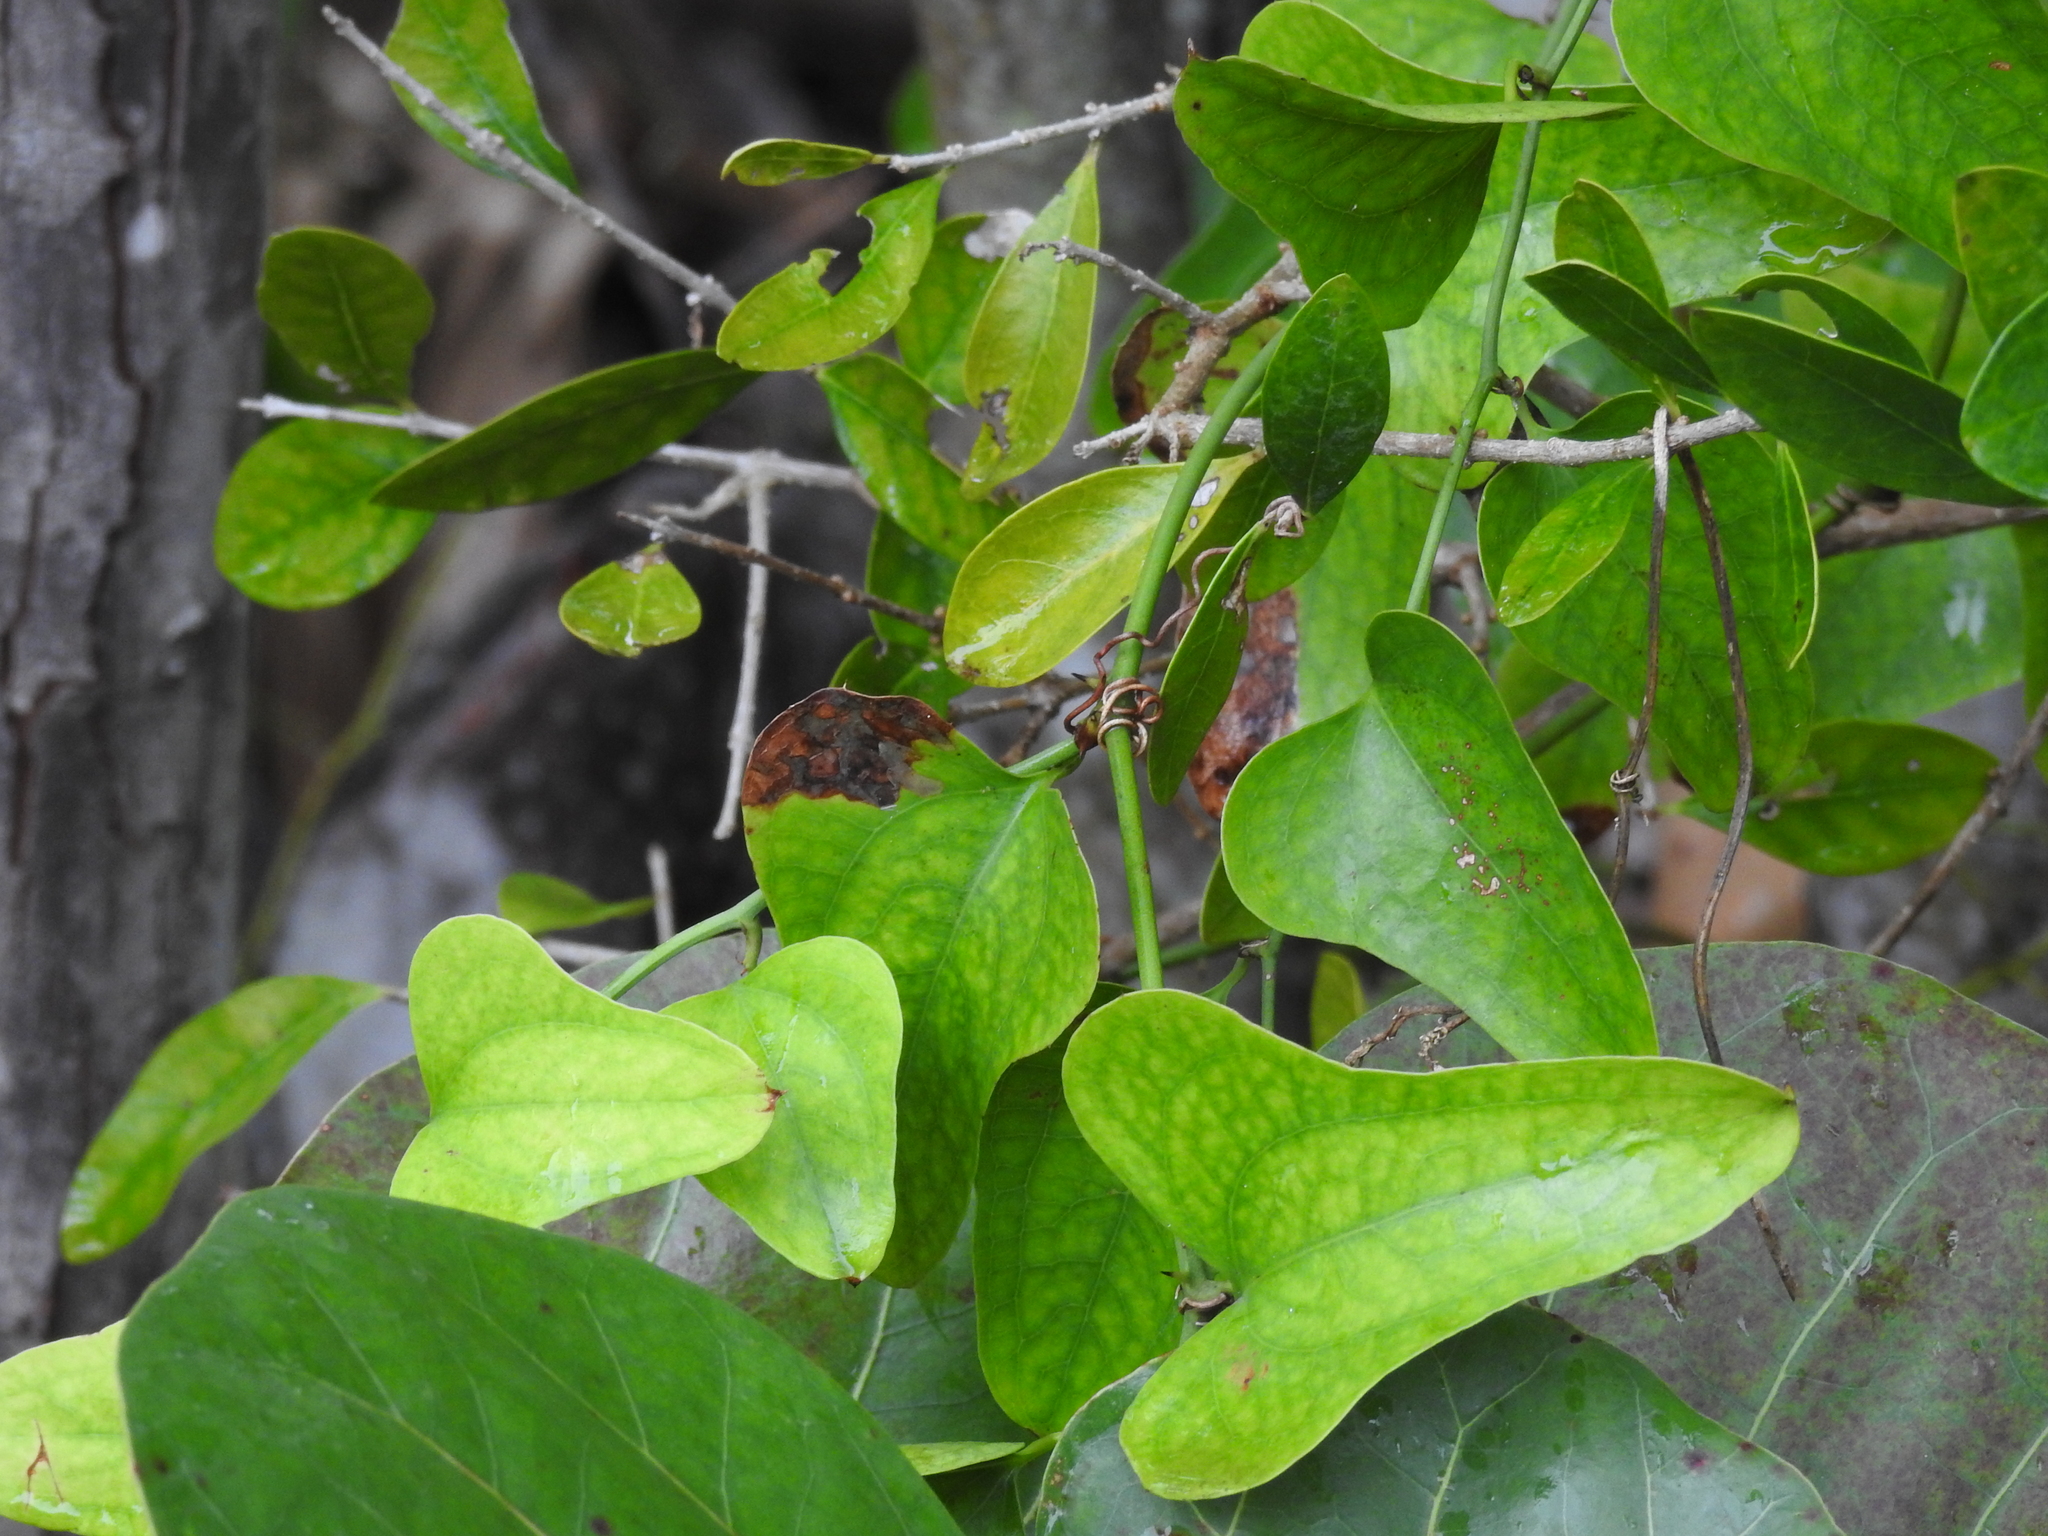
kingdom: Plantae
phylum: Tracheophyta
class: Liliopsida
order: Liliales
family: Smilacaceae
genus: Smilax
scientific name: Smilax bona-nox
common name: Catbrier
